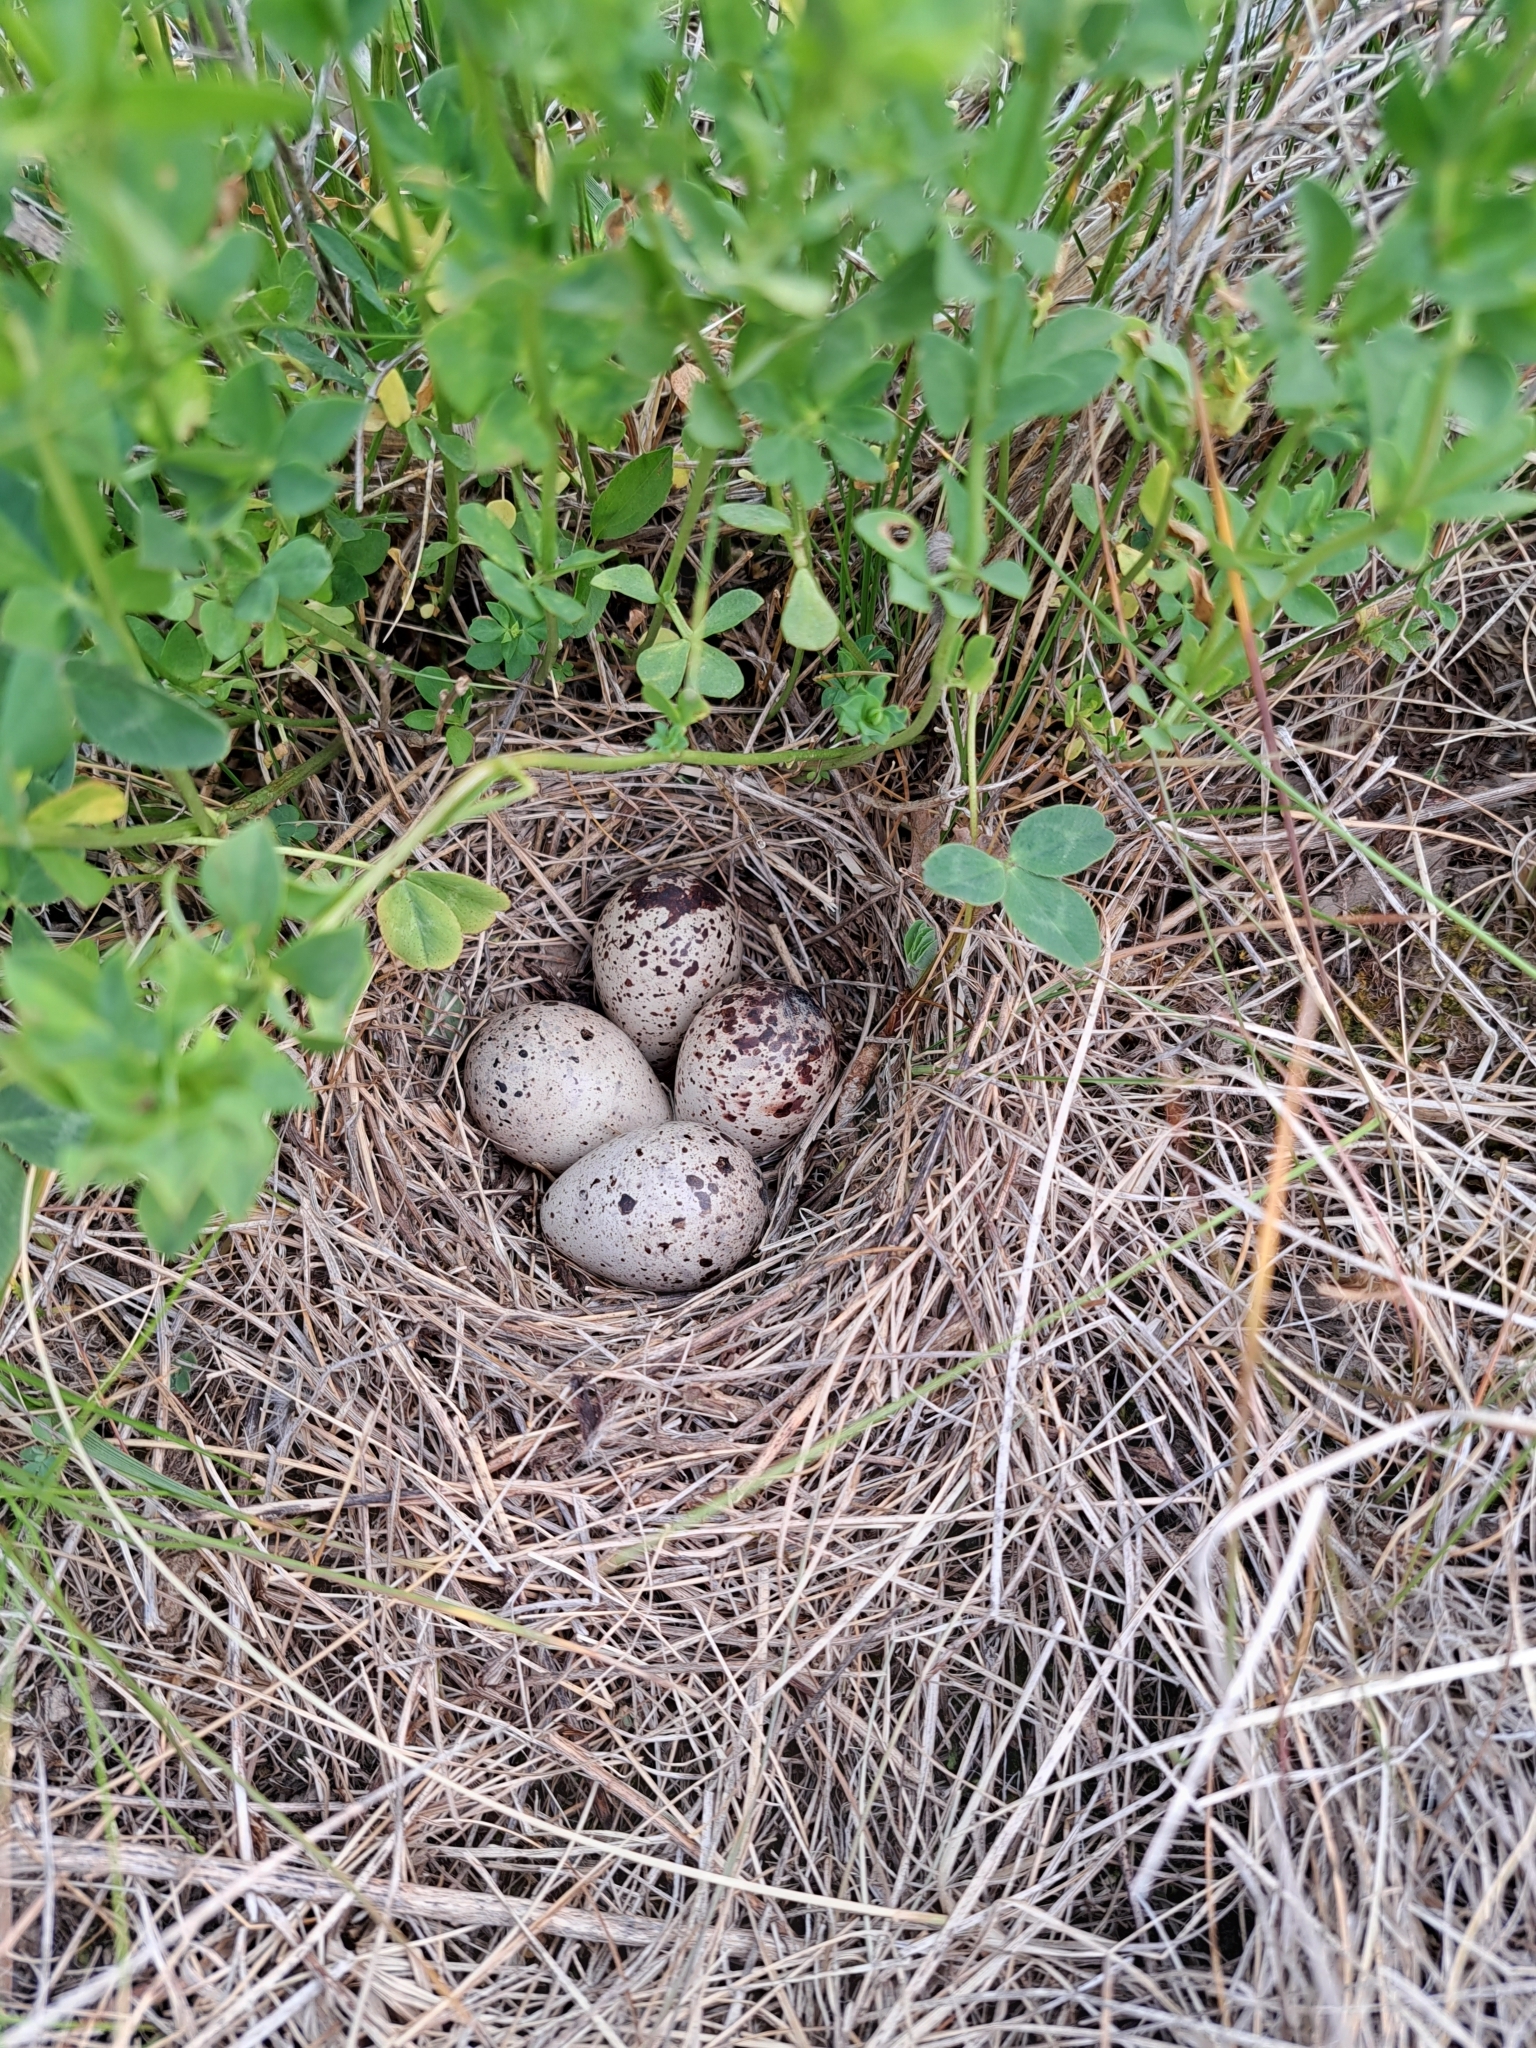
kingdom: Animalia
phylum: Chordata
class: Aves
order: Charadriiformes
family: Scolopacidae
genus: Actitis
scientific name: Actitis macularius
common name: Spotted sandpiper
